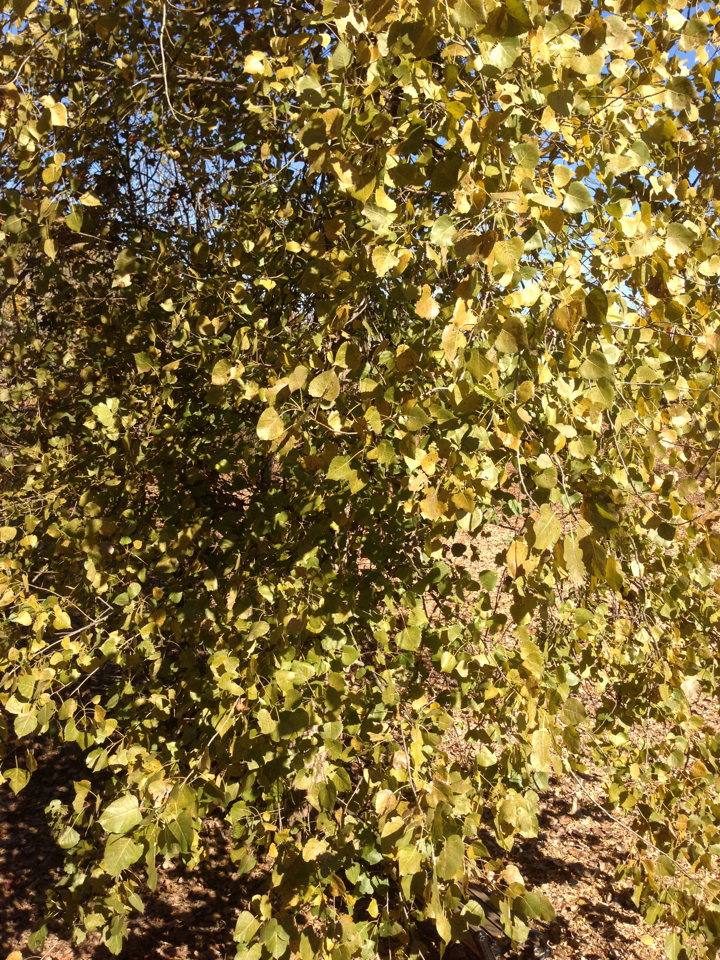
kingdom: Plantae
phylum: Tracheophyta
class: Magnoliopsida
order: Malpighiales
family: Salicaceae
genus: Populus
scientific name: Populus deltoides
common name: Eastern cottonwood
